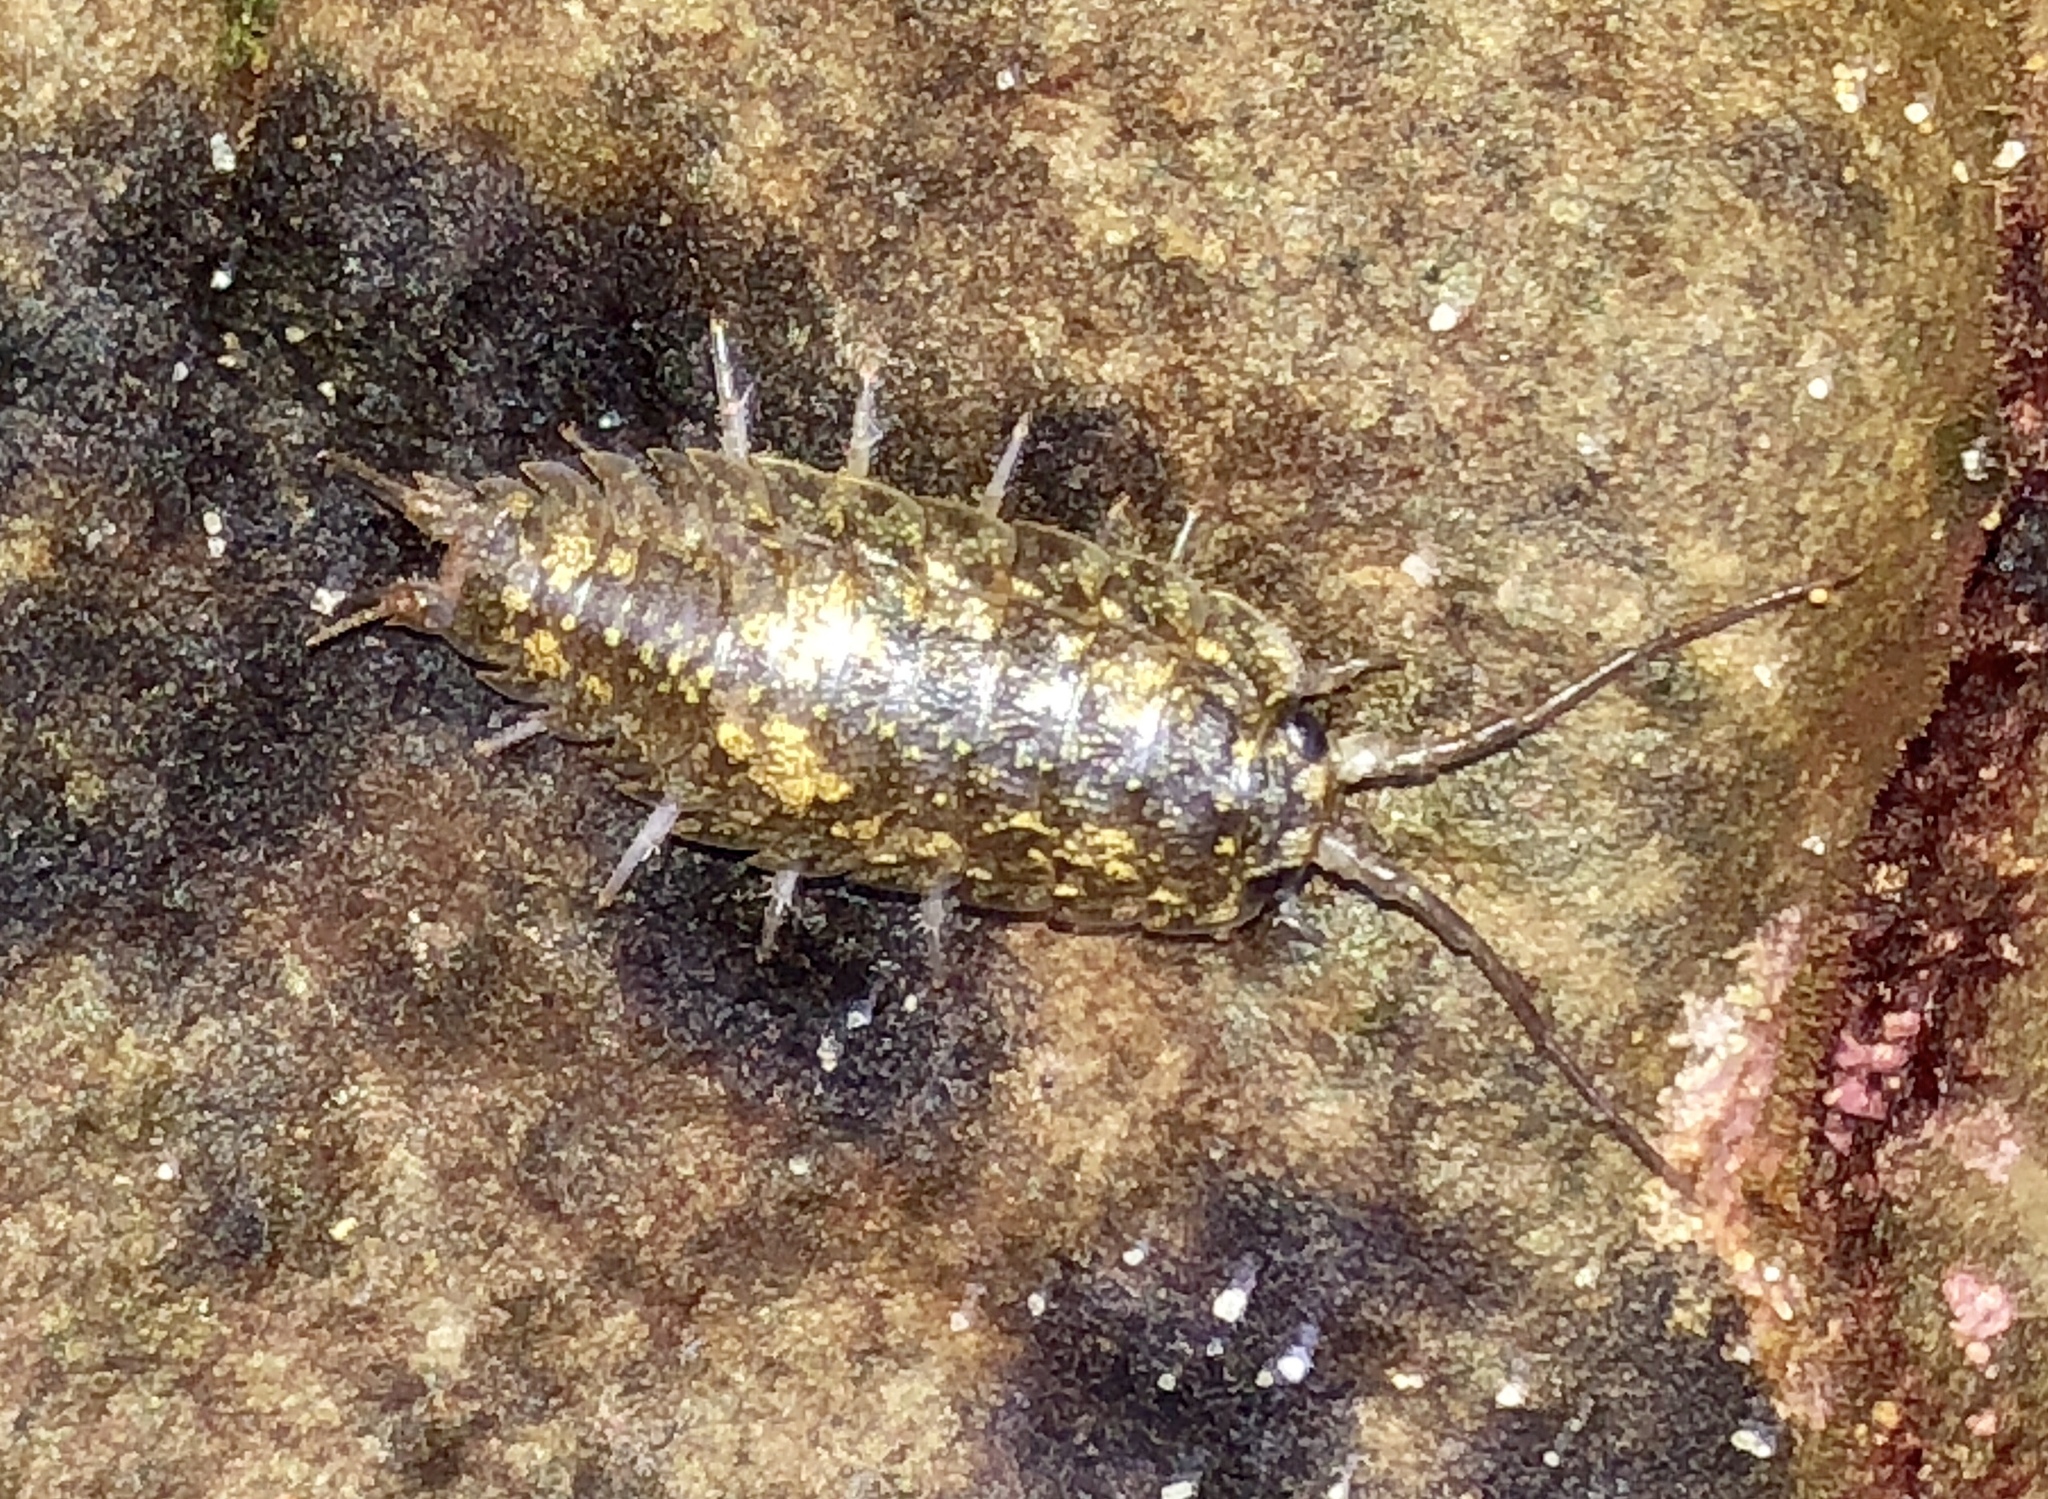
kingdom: Animalia
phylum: Arthropoda
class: Malacostraca
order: Isopoda
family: Ligiidae
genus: Ligia
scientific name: Ligia pallasii
